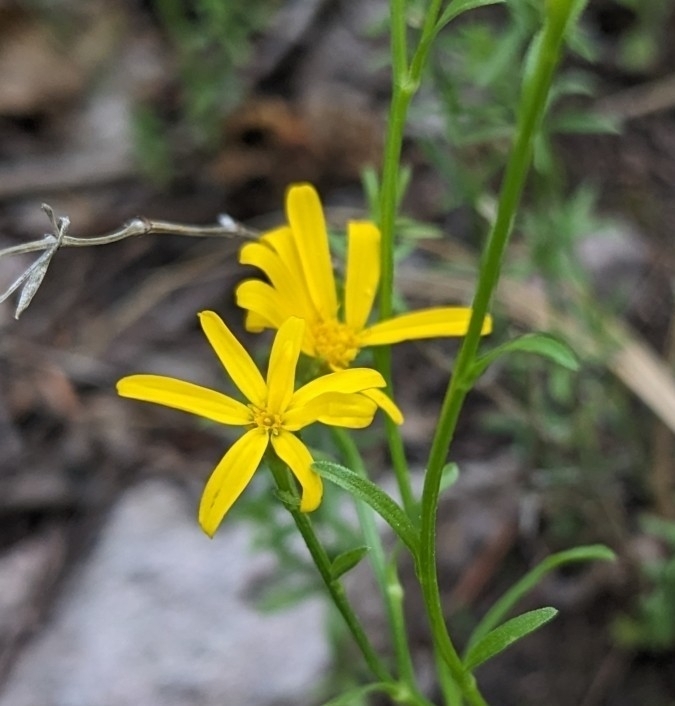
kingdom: Plantae
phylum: Tracheophyta
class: Magnoliopsida
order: Asterales
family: Asteraceae
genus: Gutierrezia
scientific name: Gutierrezia wrightii
